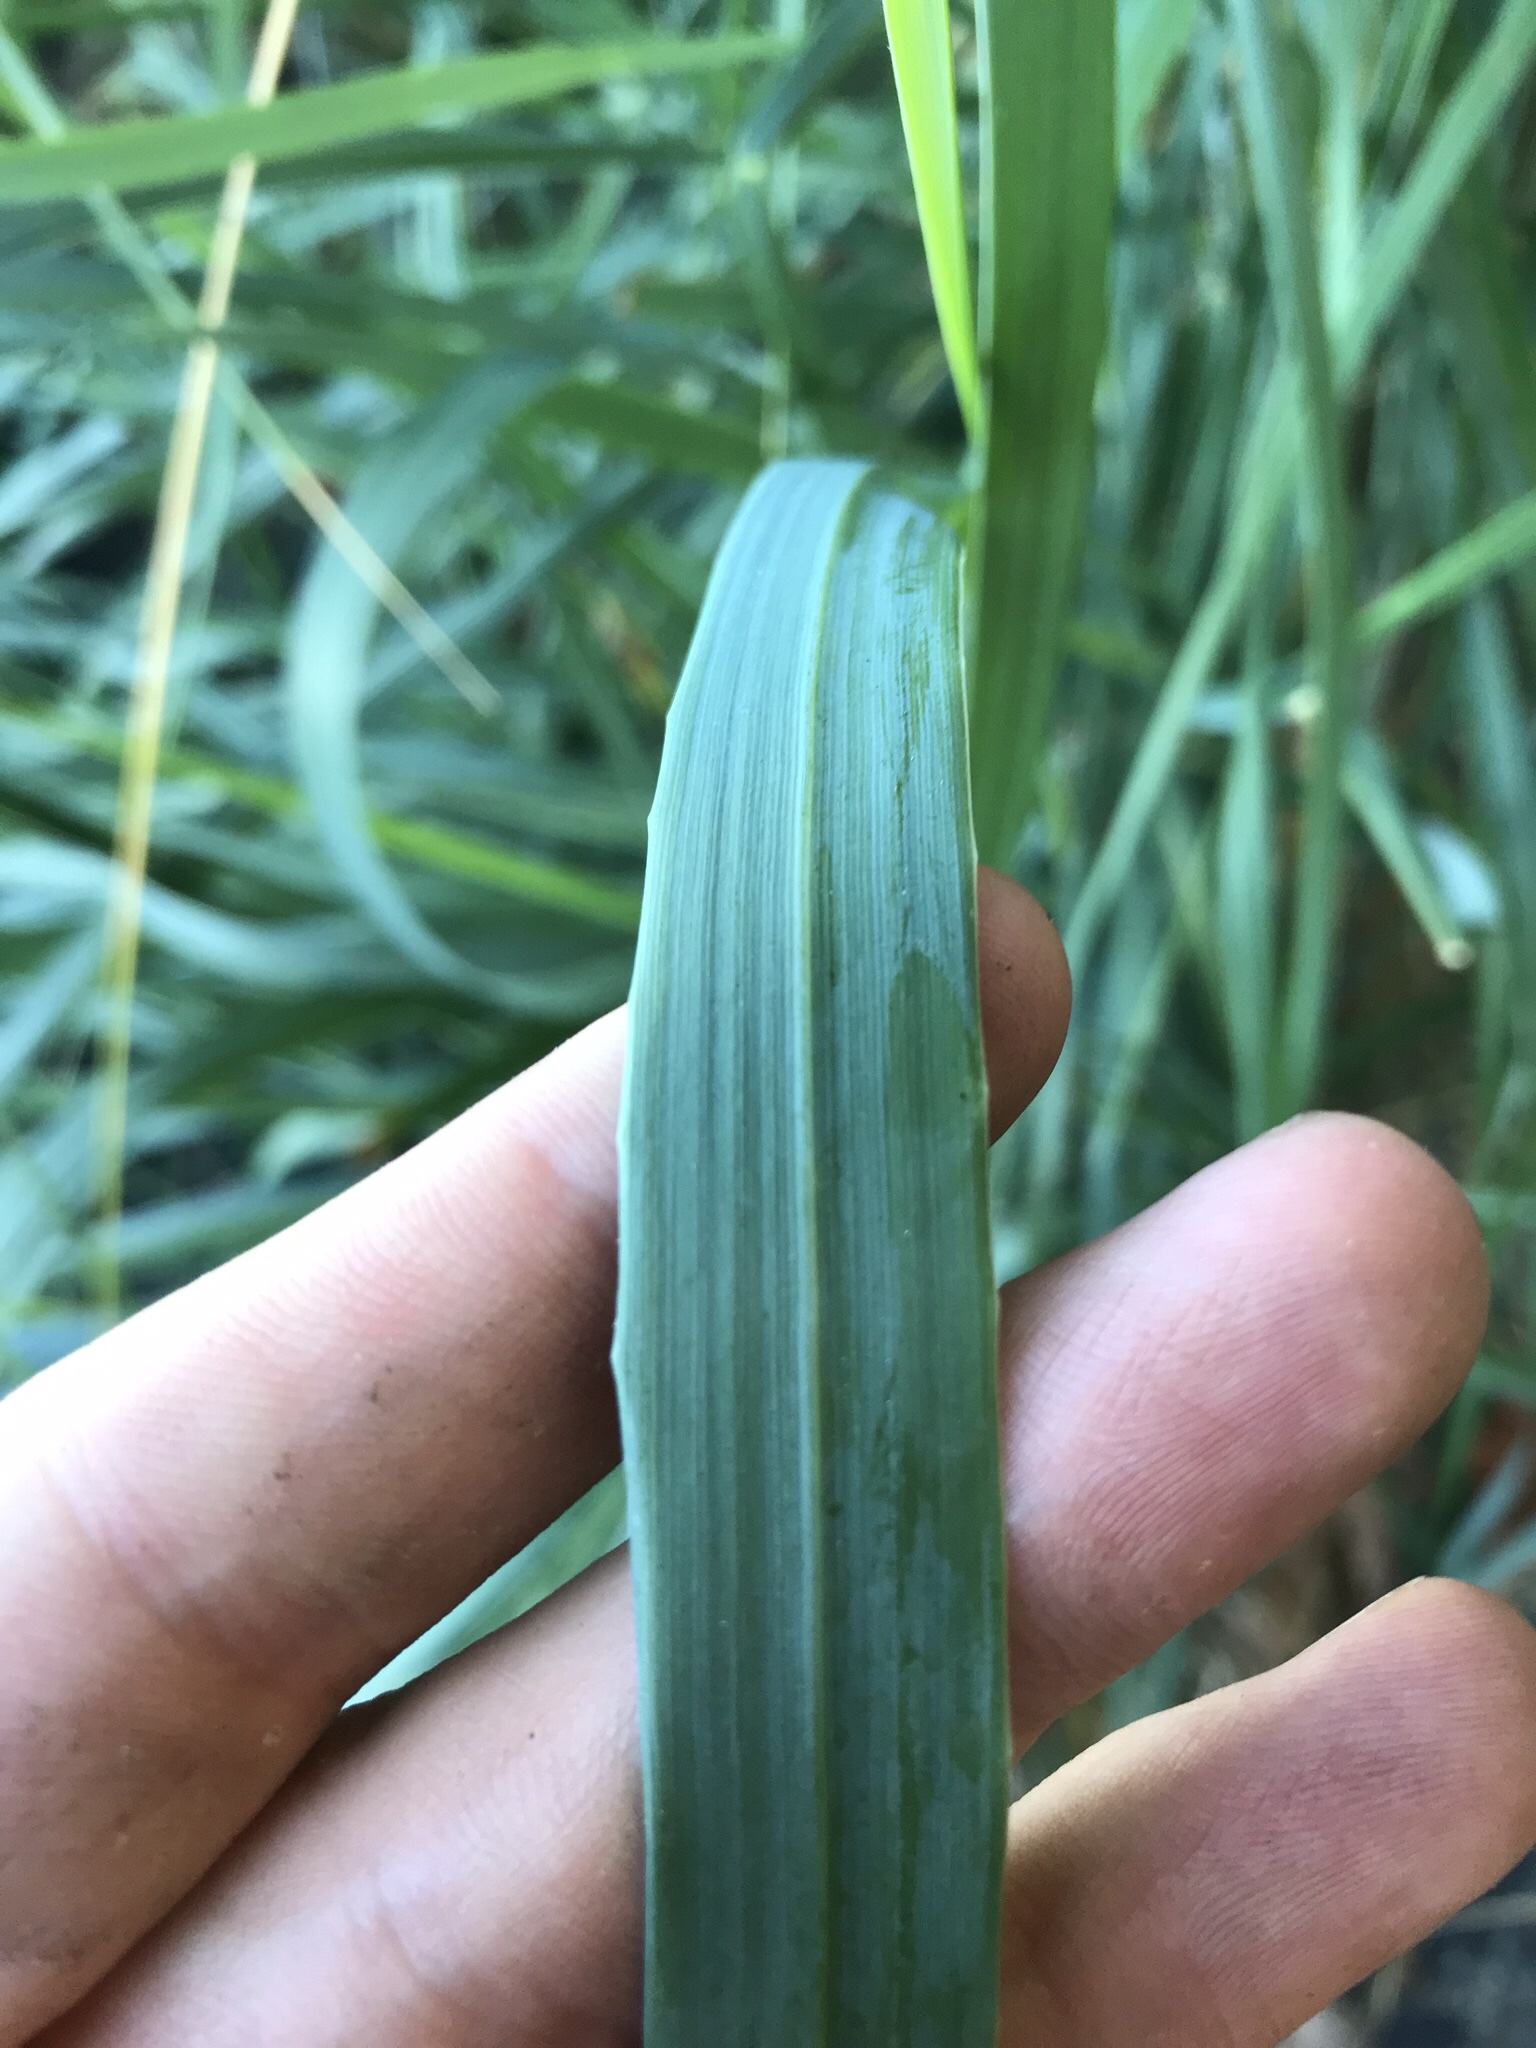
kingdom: Plantae
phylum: Tracheophyta
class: Liliopsida
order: Poales
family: Poaceae
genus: Leymus
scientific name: Leymus mollis
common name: American dune grass
